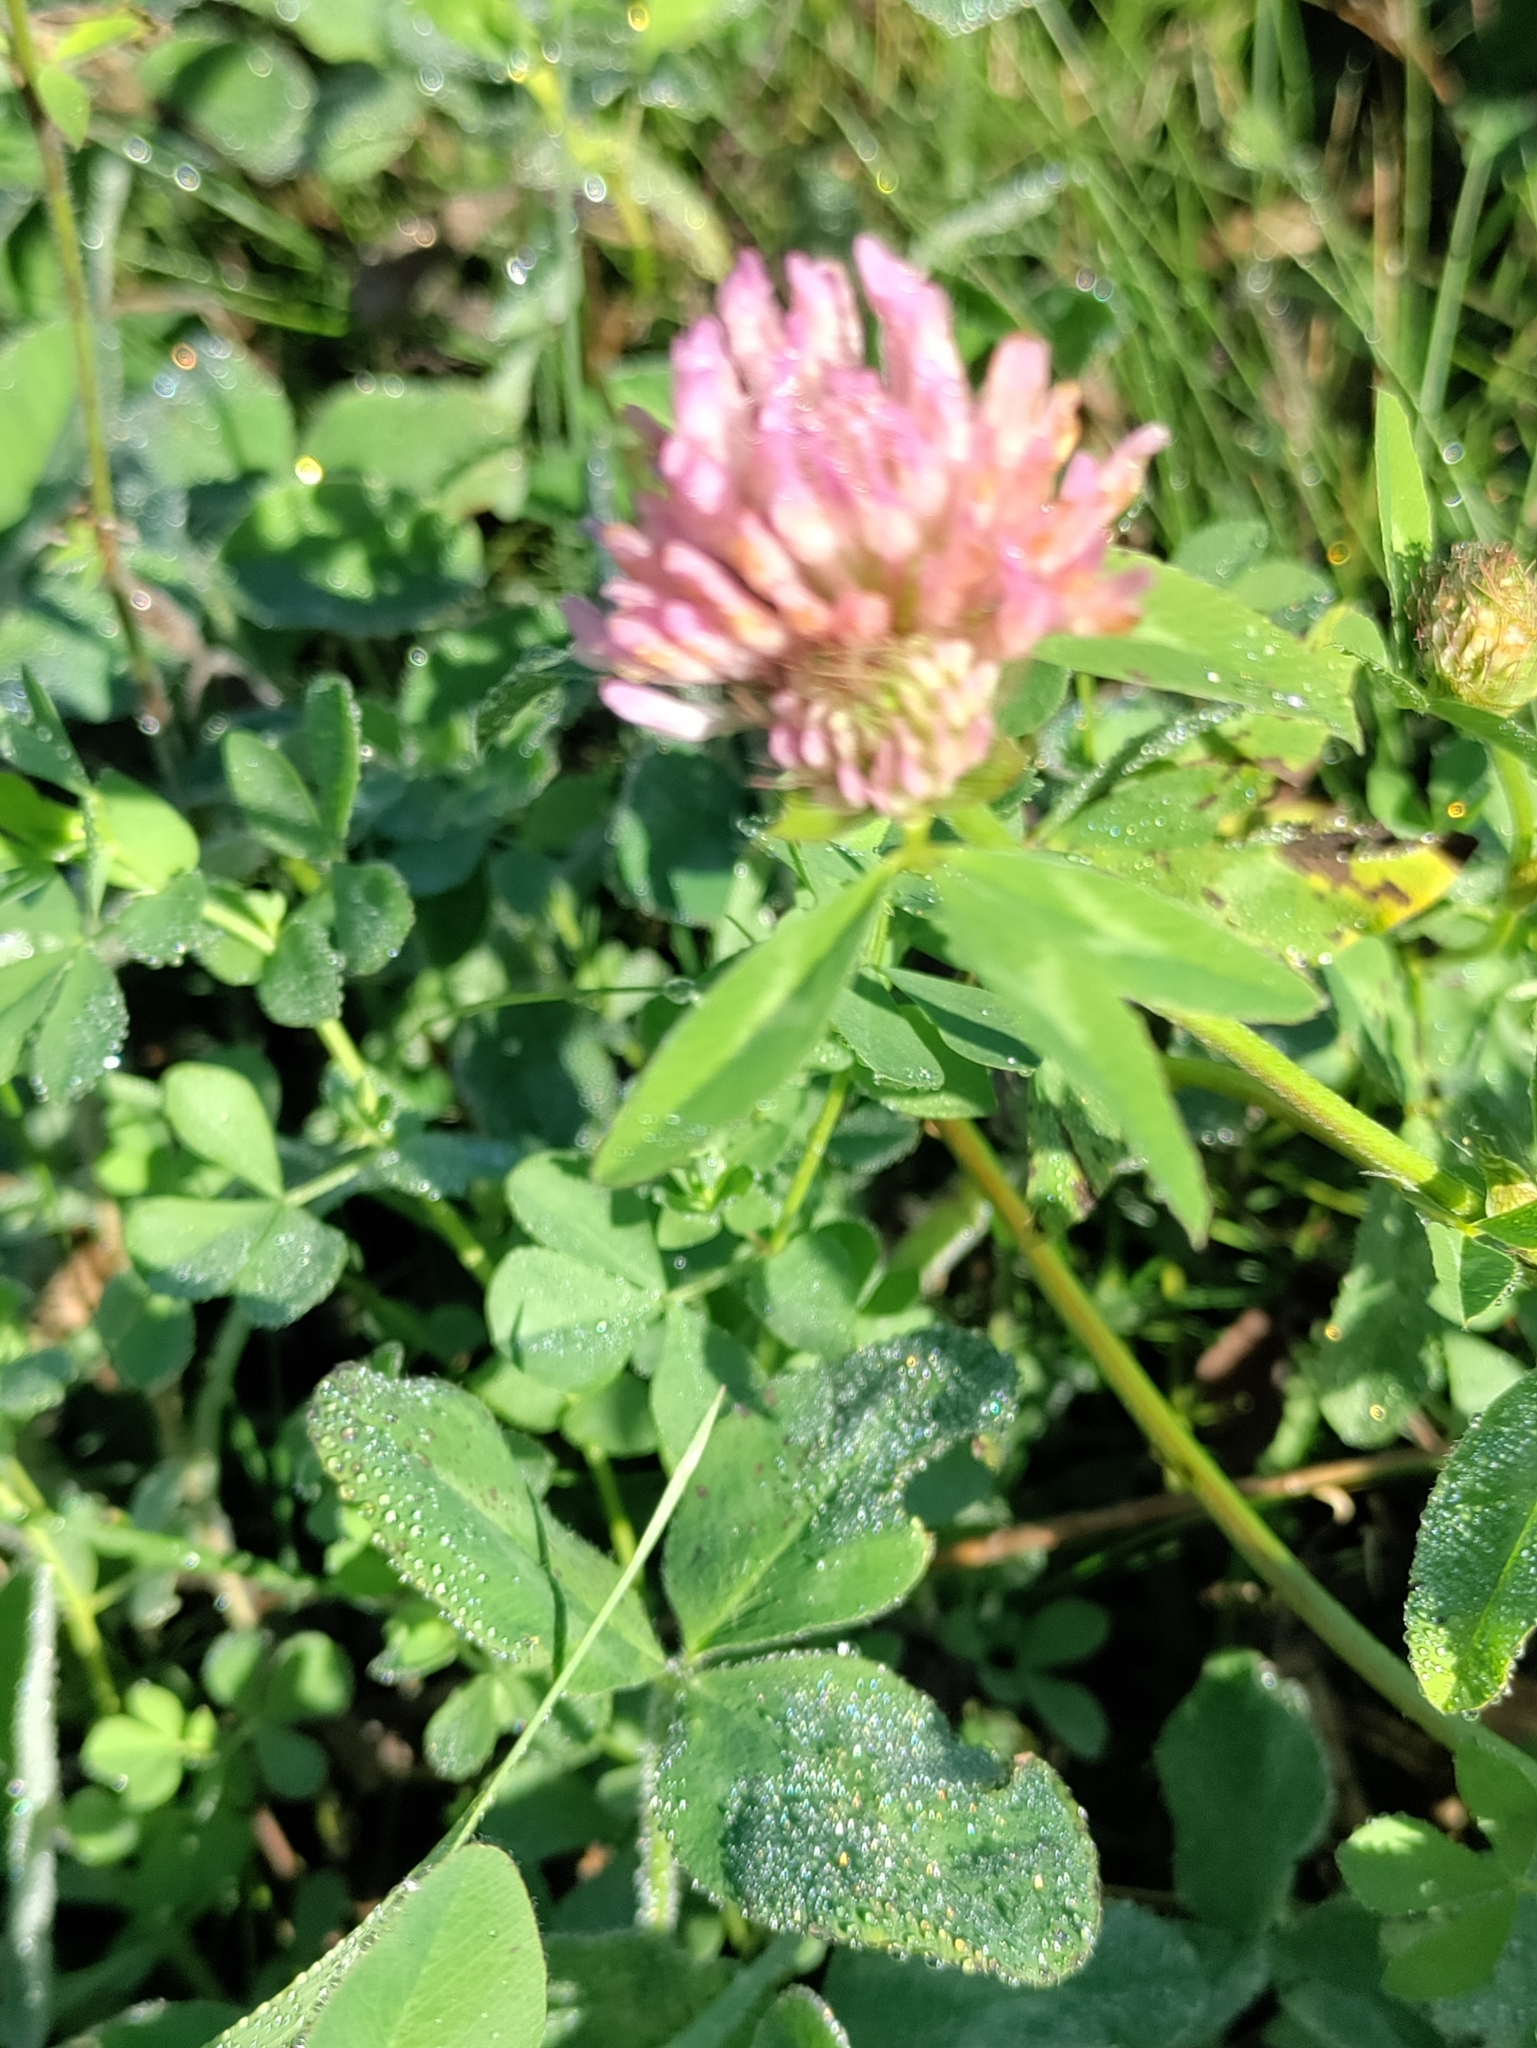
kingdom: Plantae
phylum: Tracheophyta
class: Magnoliopsida
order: Fabales
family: Fabaceae
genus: Trifolium
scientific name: Trifolium pratense
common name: Red clover
